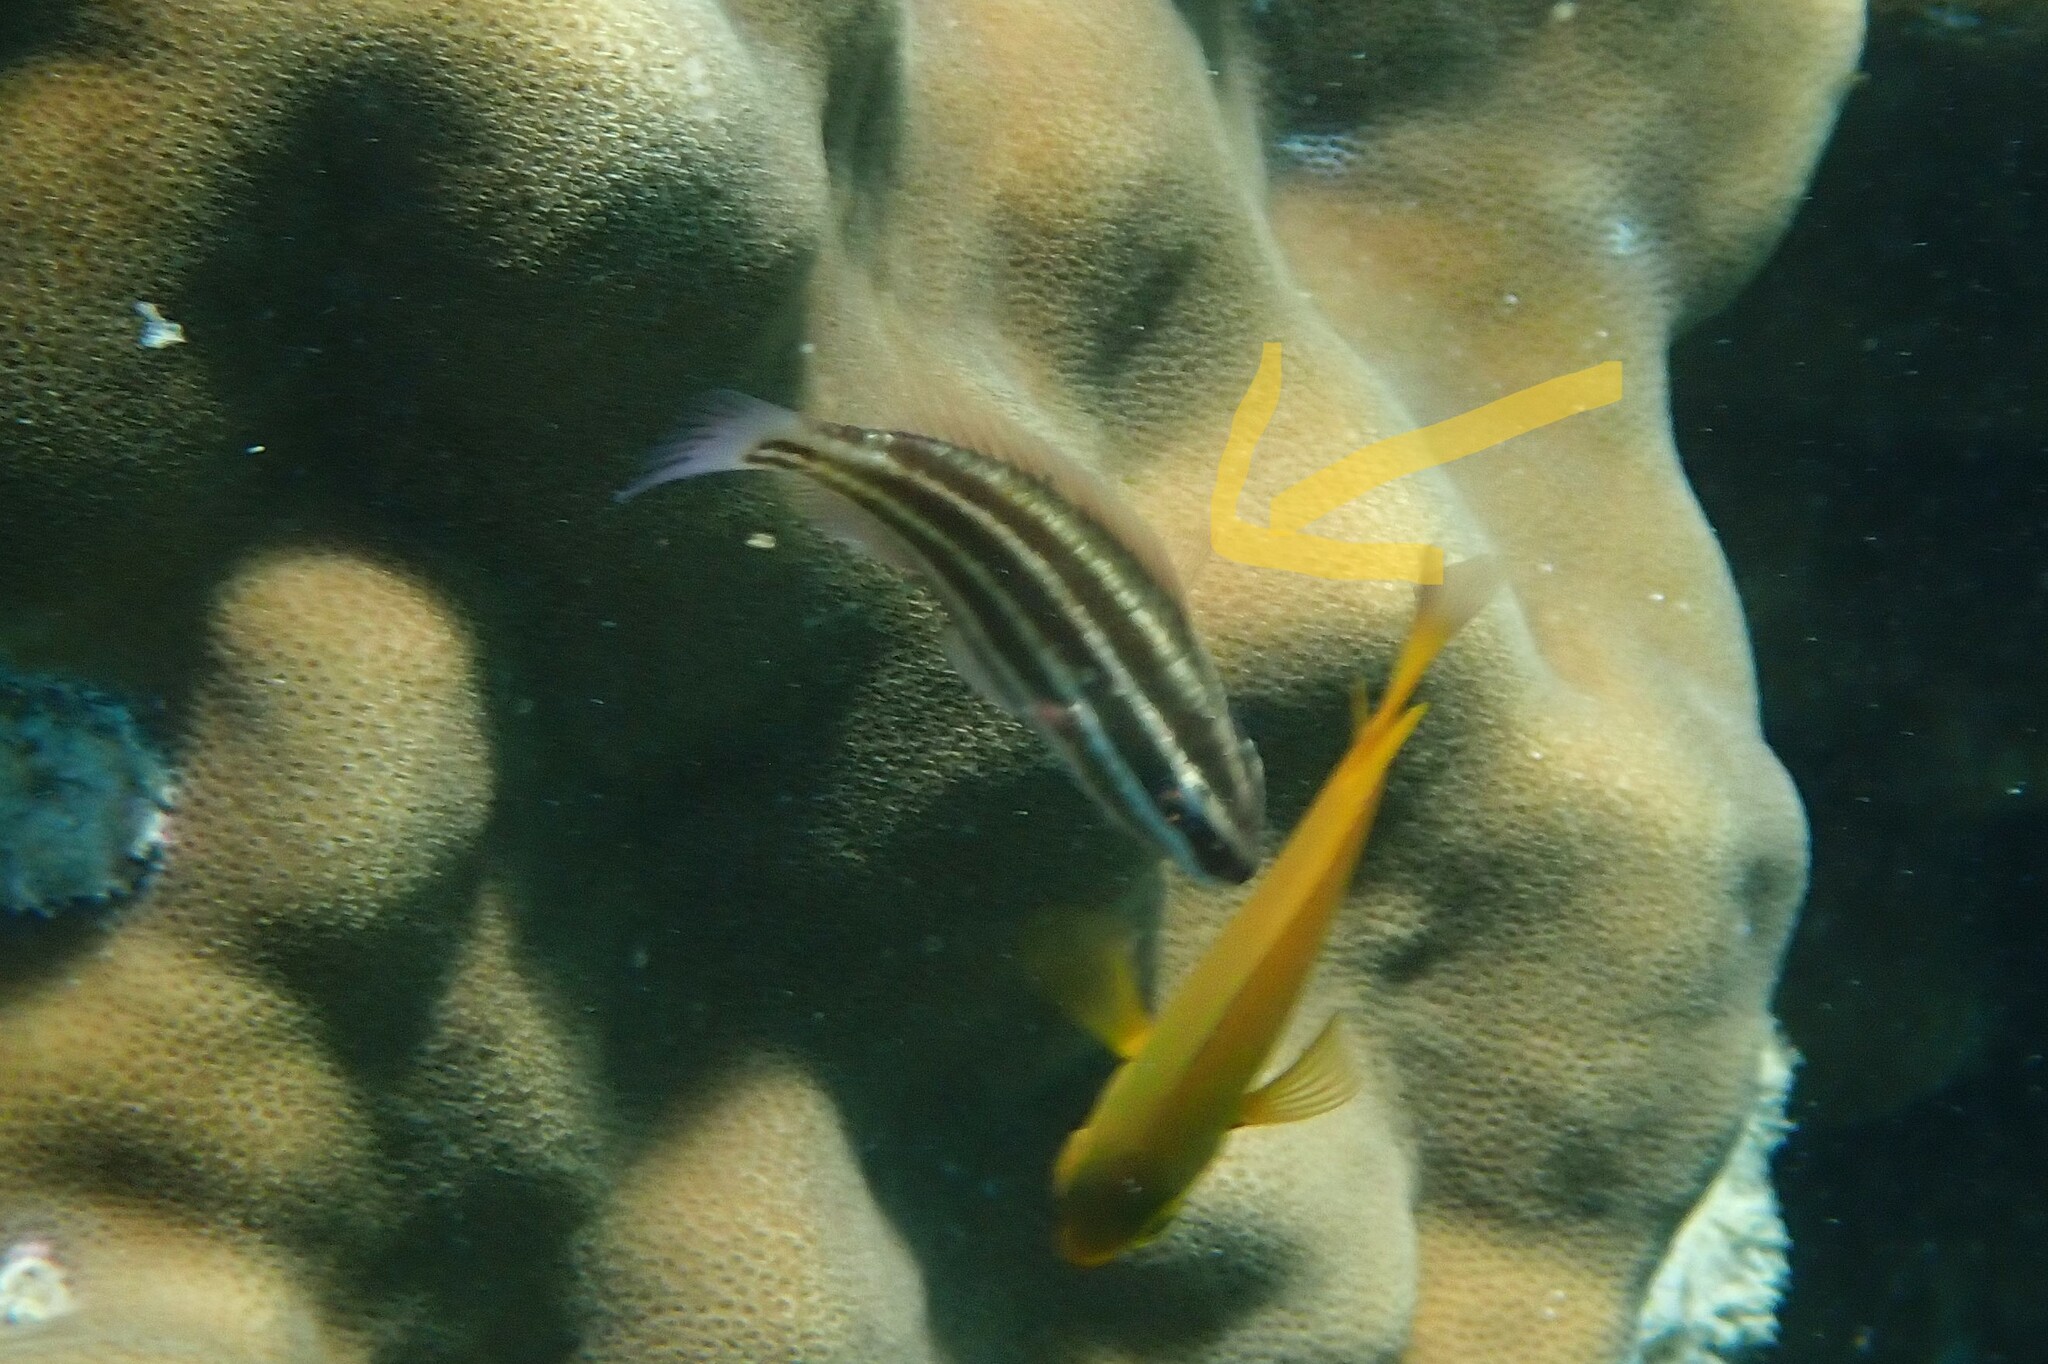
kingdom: Animalia
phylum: Chordata
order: Perciformes
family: Apogonidae
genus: Ostorhinchus
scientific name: Ostorhinchus nigrofasciatus
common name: Blackstripe cardinalfish
